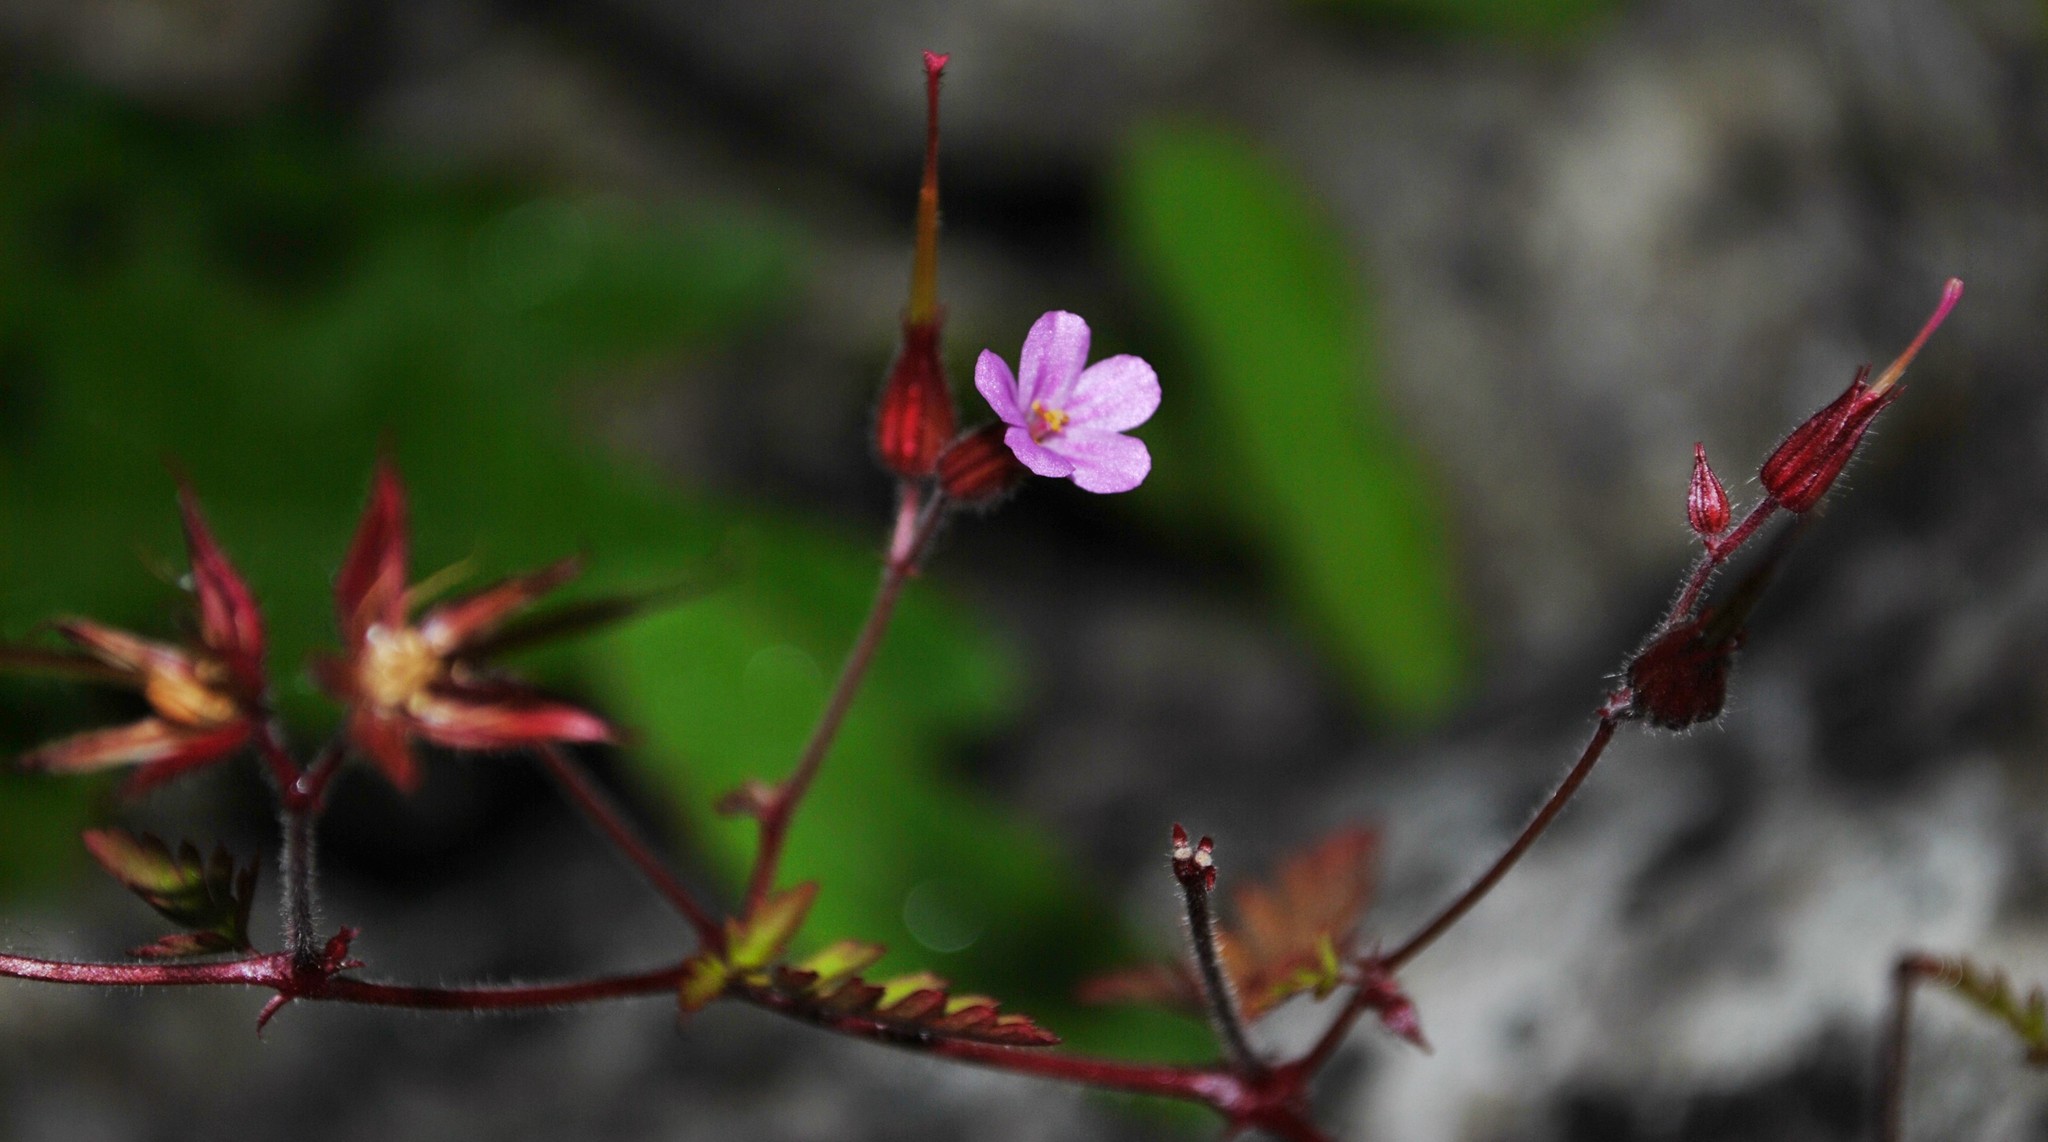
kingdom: Plantae
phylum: Tracheophyta
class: Magnoliopsida
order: Geraniales
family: Geraniaceae
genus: Geranium
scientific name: Geranium robertianum
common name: Herb-robert
